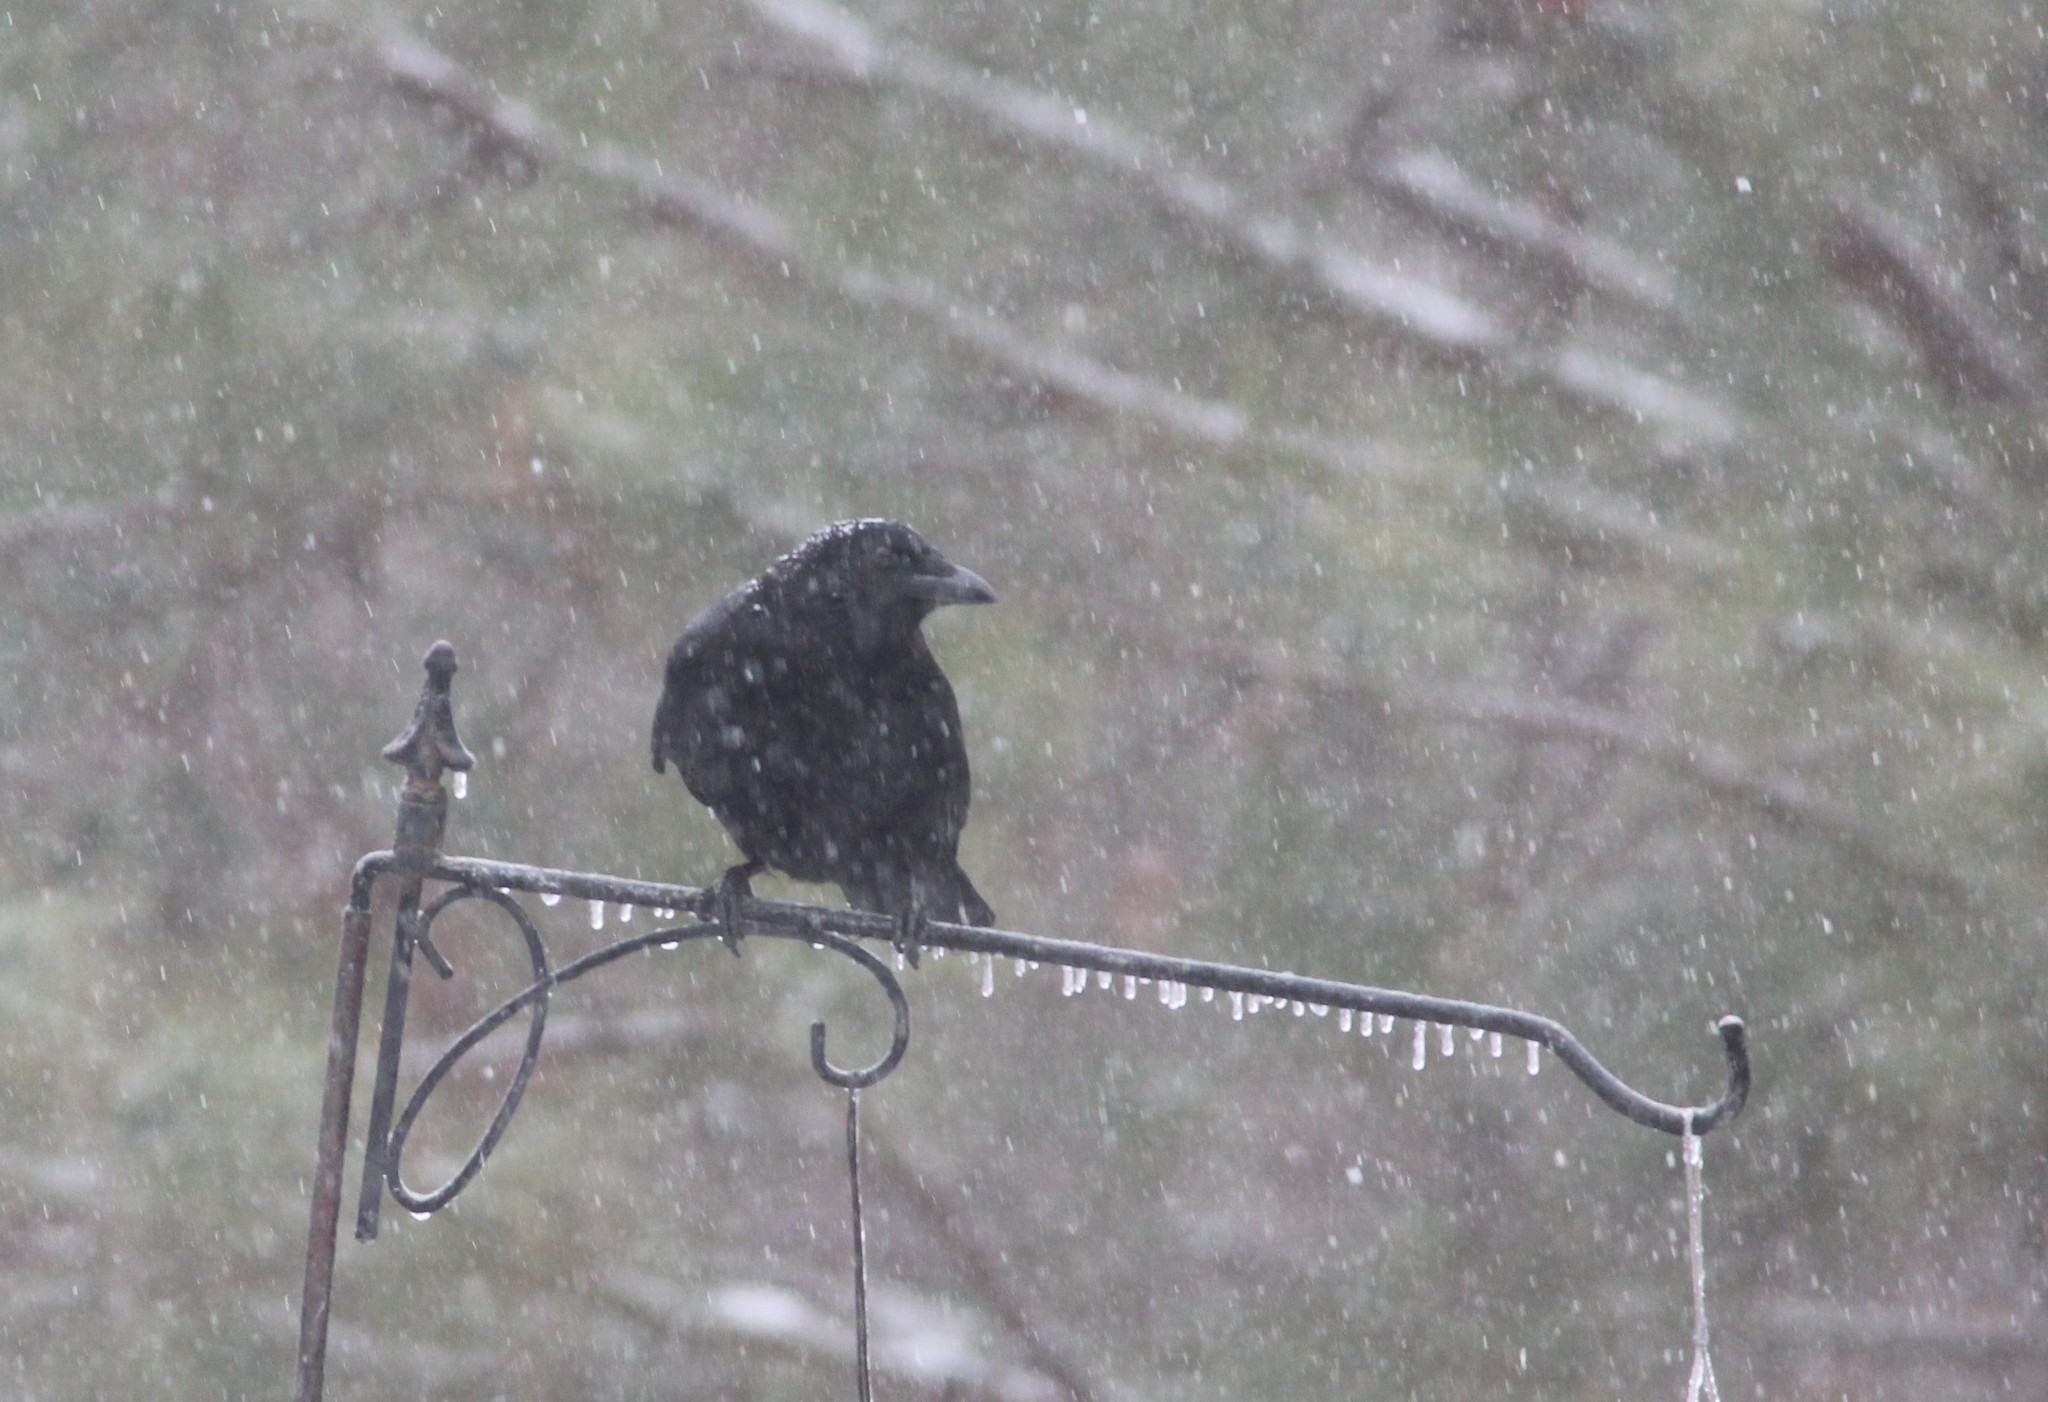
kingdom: Animalia
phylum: Chordata
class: Aves
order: Passeriformes
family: Corvidae
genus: Corvus
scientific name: Corvus brachyrhynchos
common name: American crow
